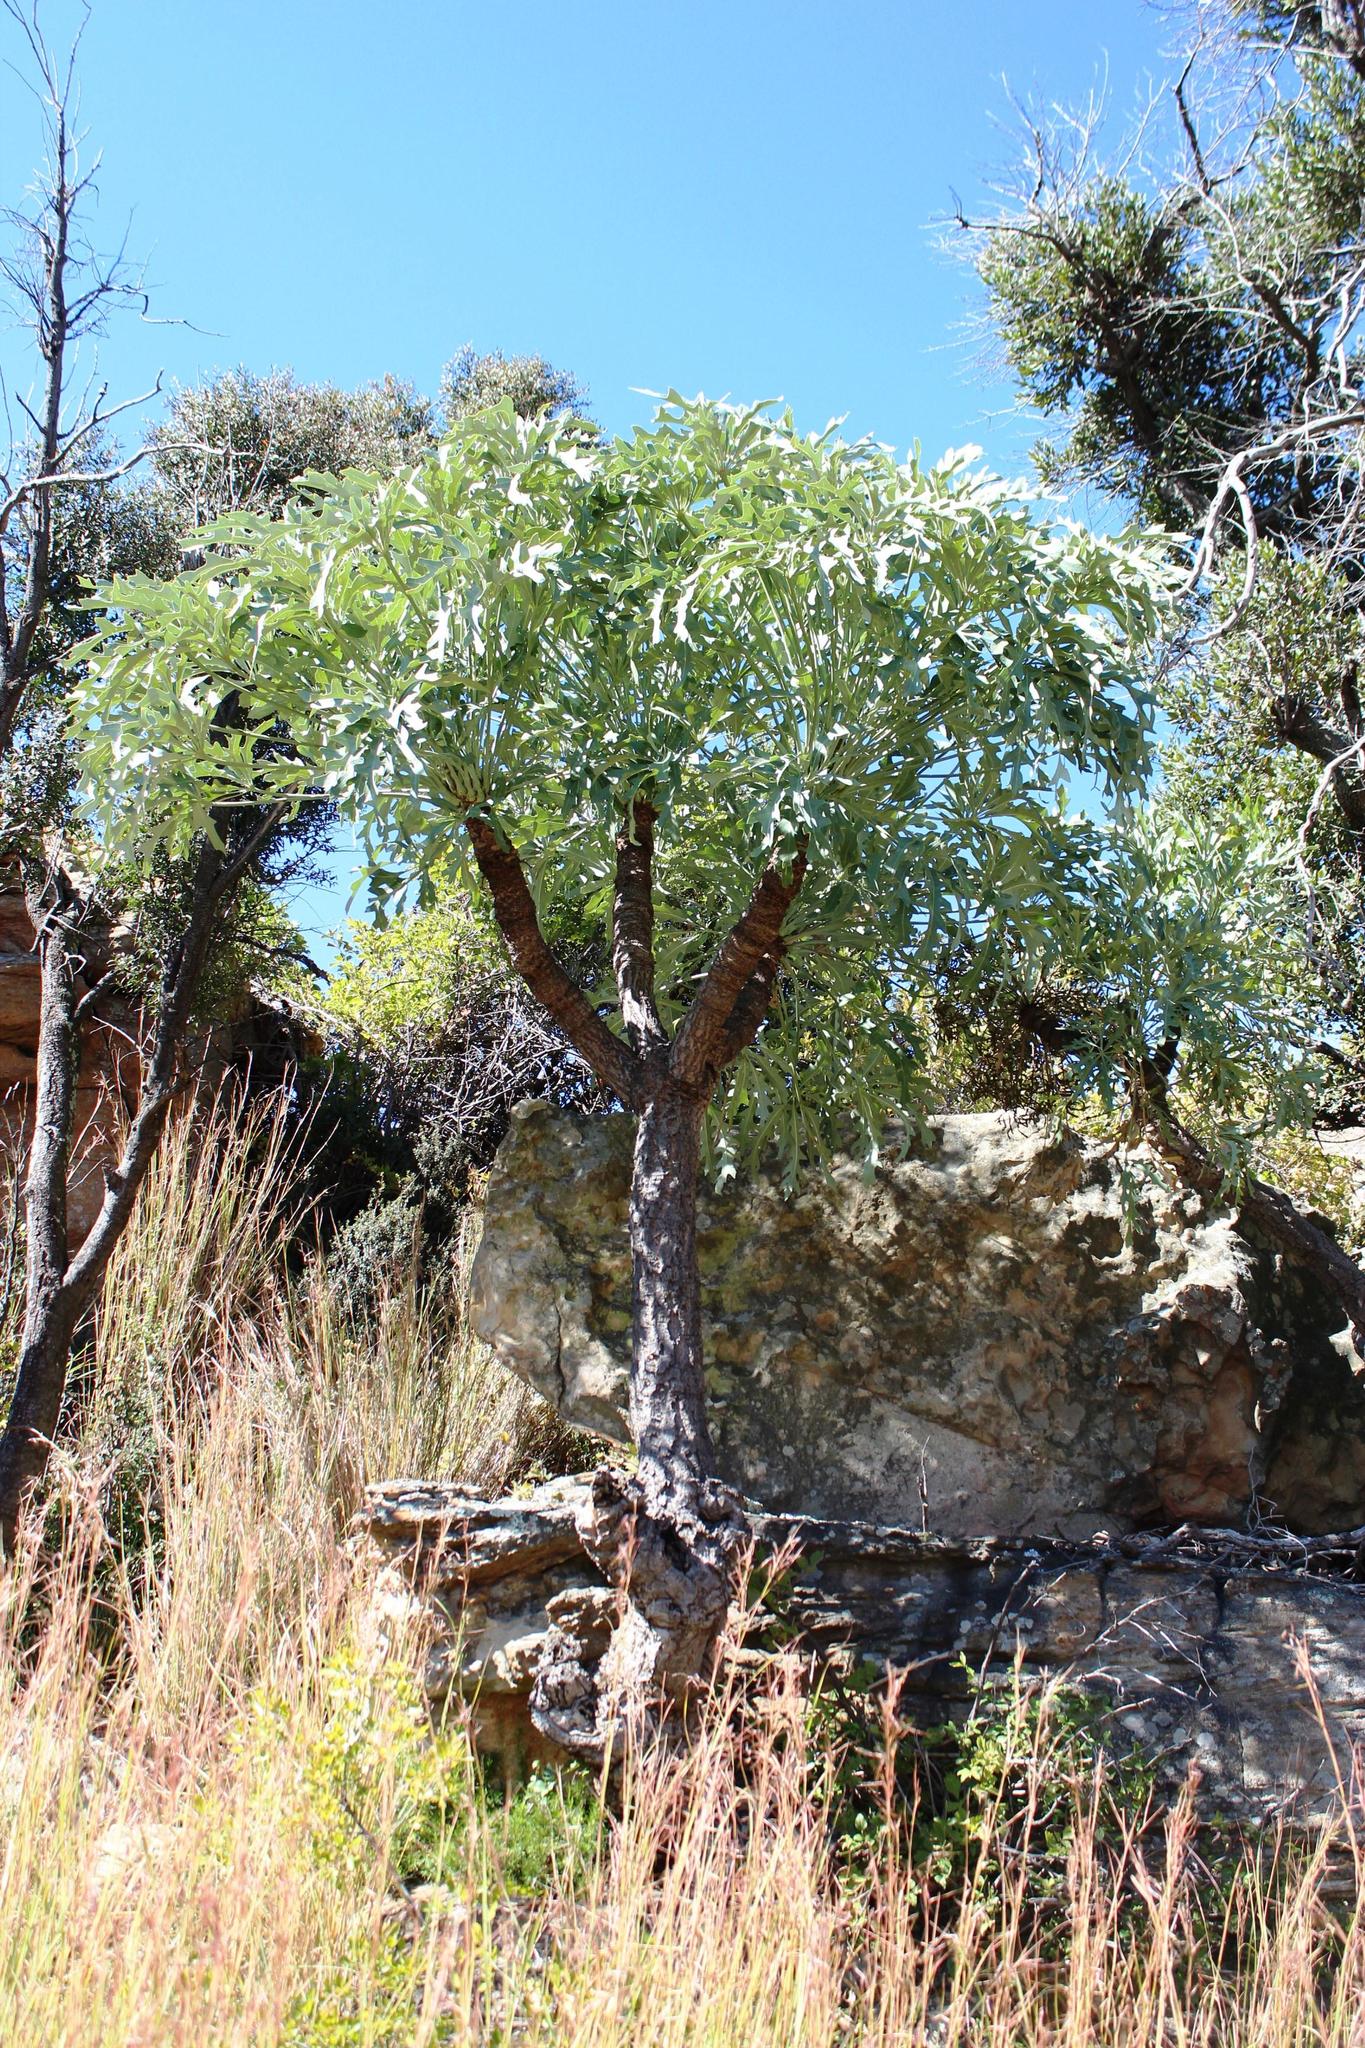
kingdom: Plantae
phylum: Tracheophyta
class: Magnoliopsida
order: Apiales
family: Araliaceae
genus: Cussonia
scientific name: Cussonia paniculata
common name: Cabbagetree
